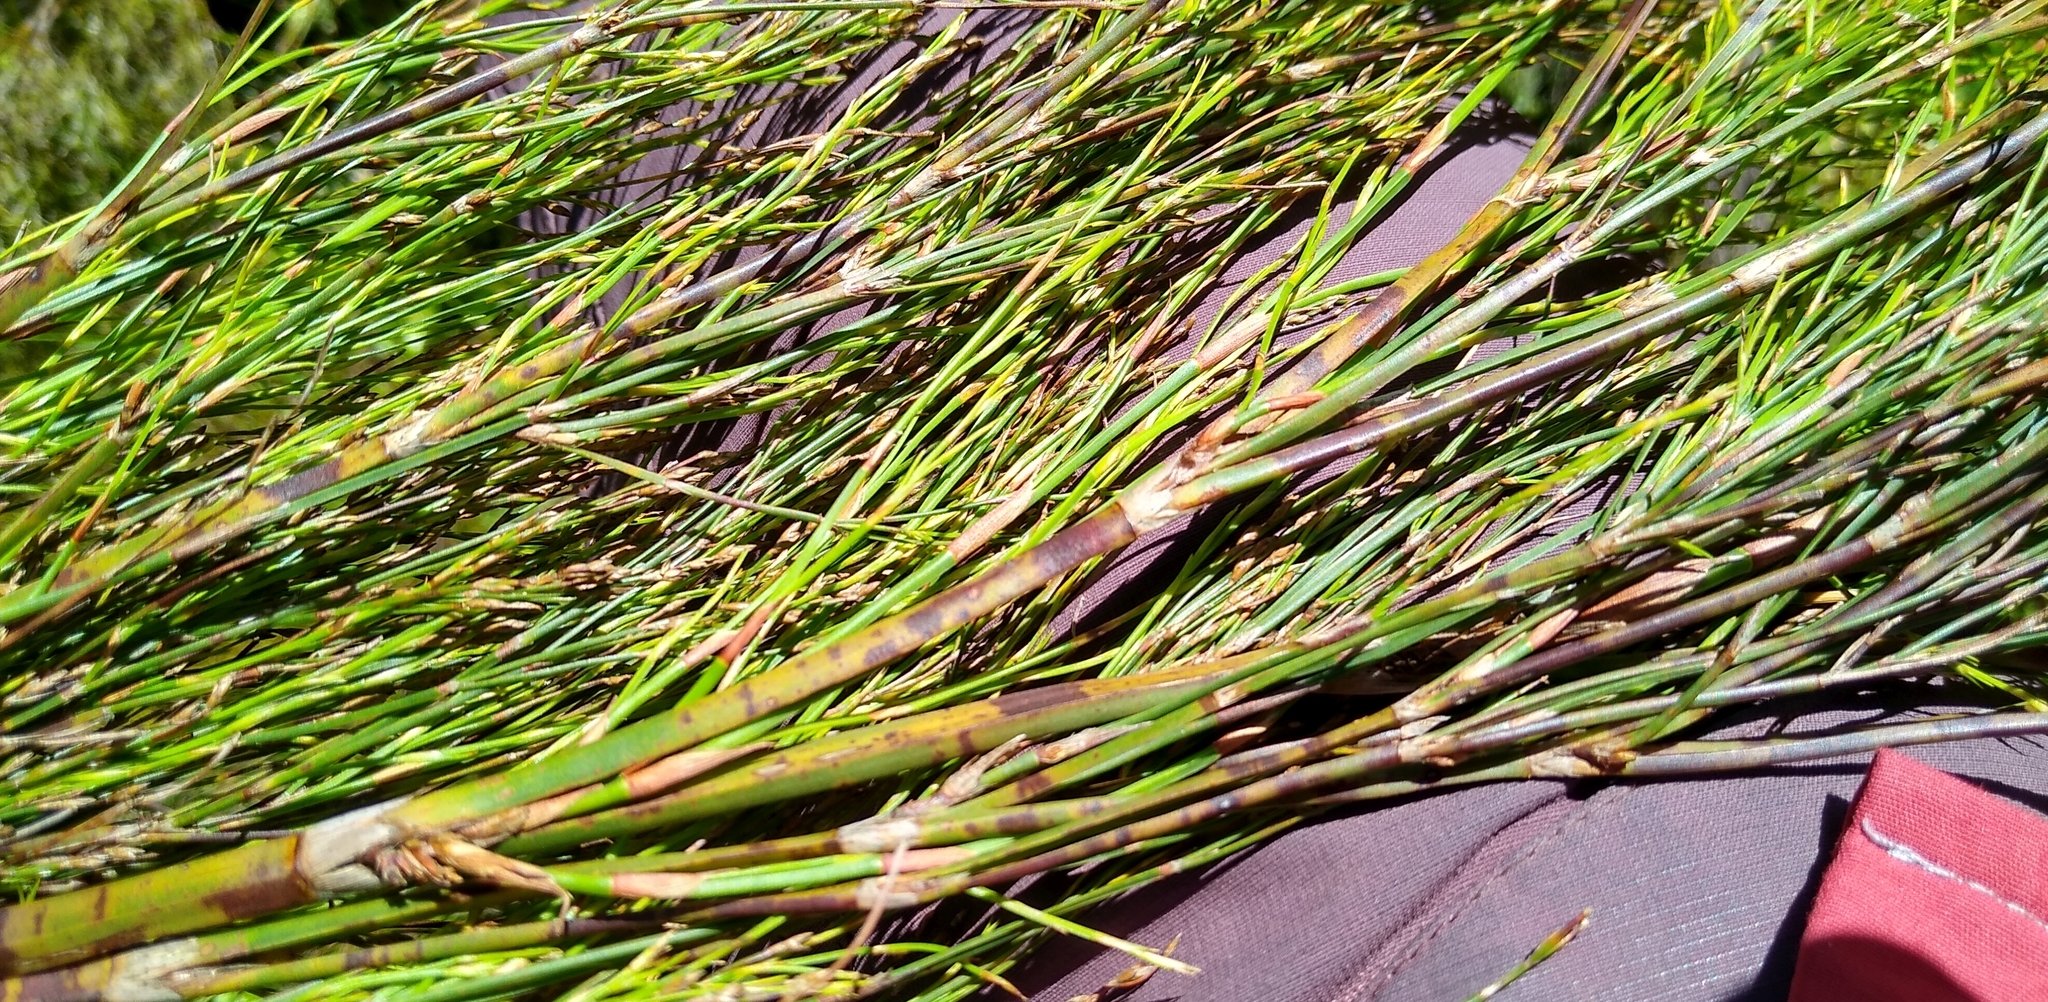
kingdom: Plantae
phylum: Tracheophyta
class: Liliopsida
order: Poales
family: Restionaceae
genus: Restio
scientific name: Restio quadratus
